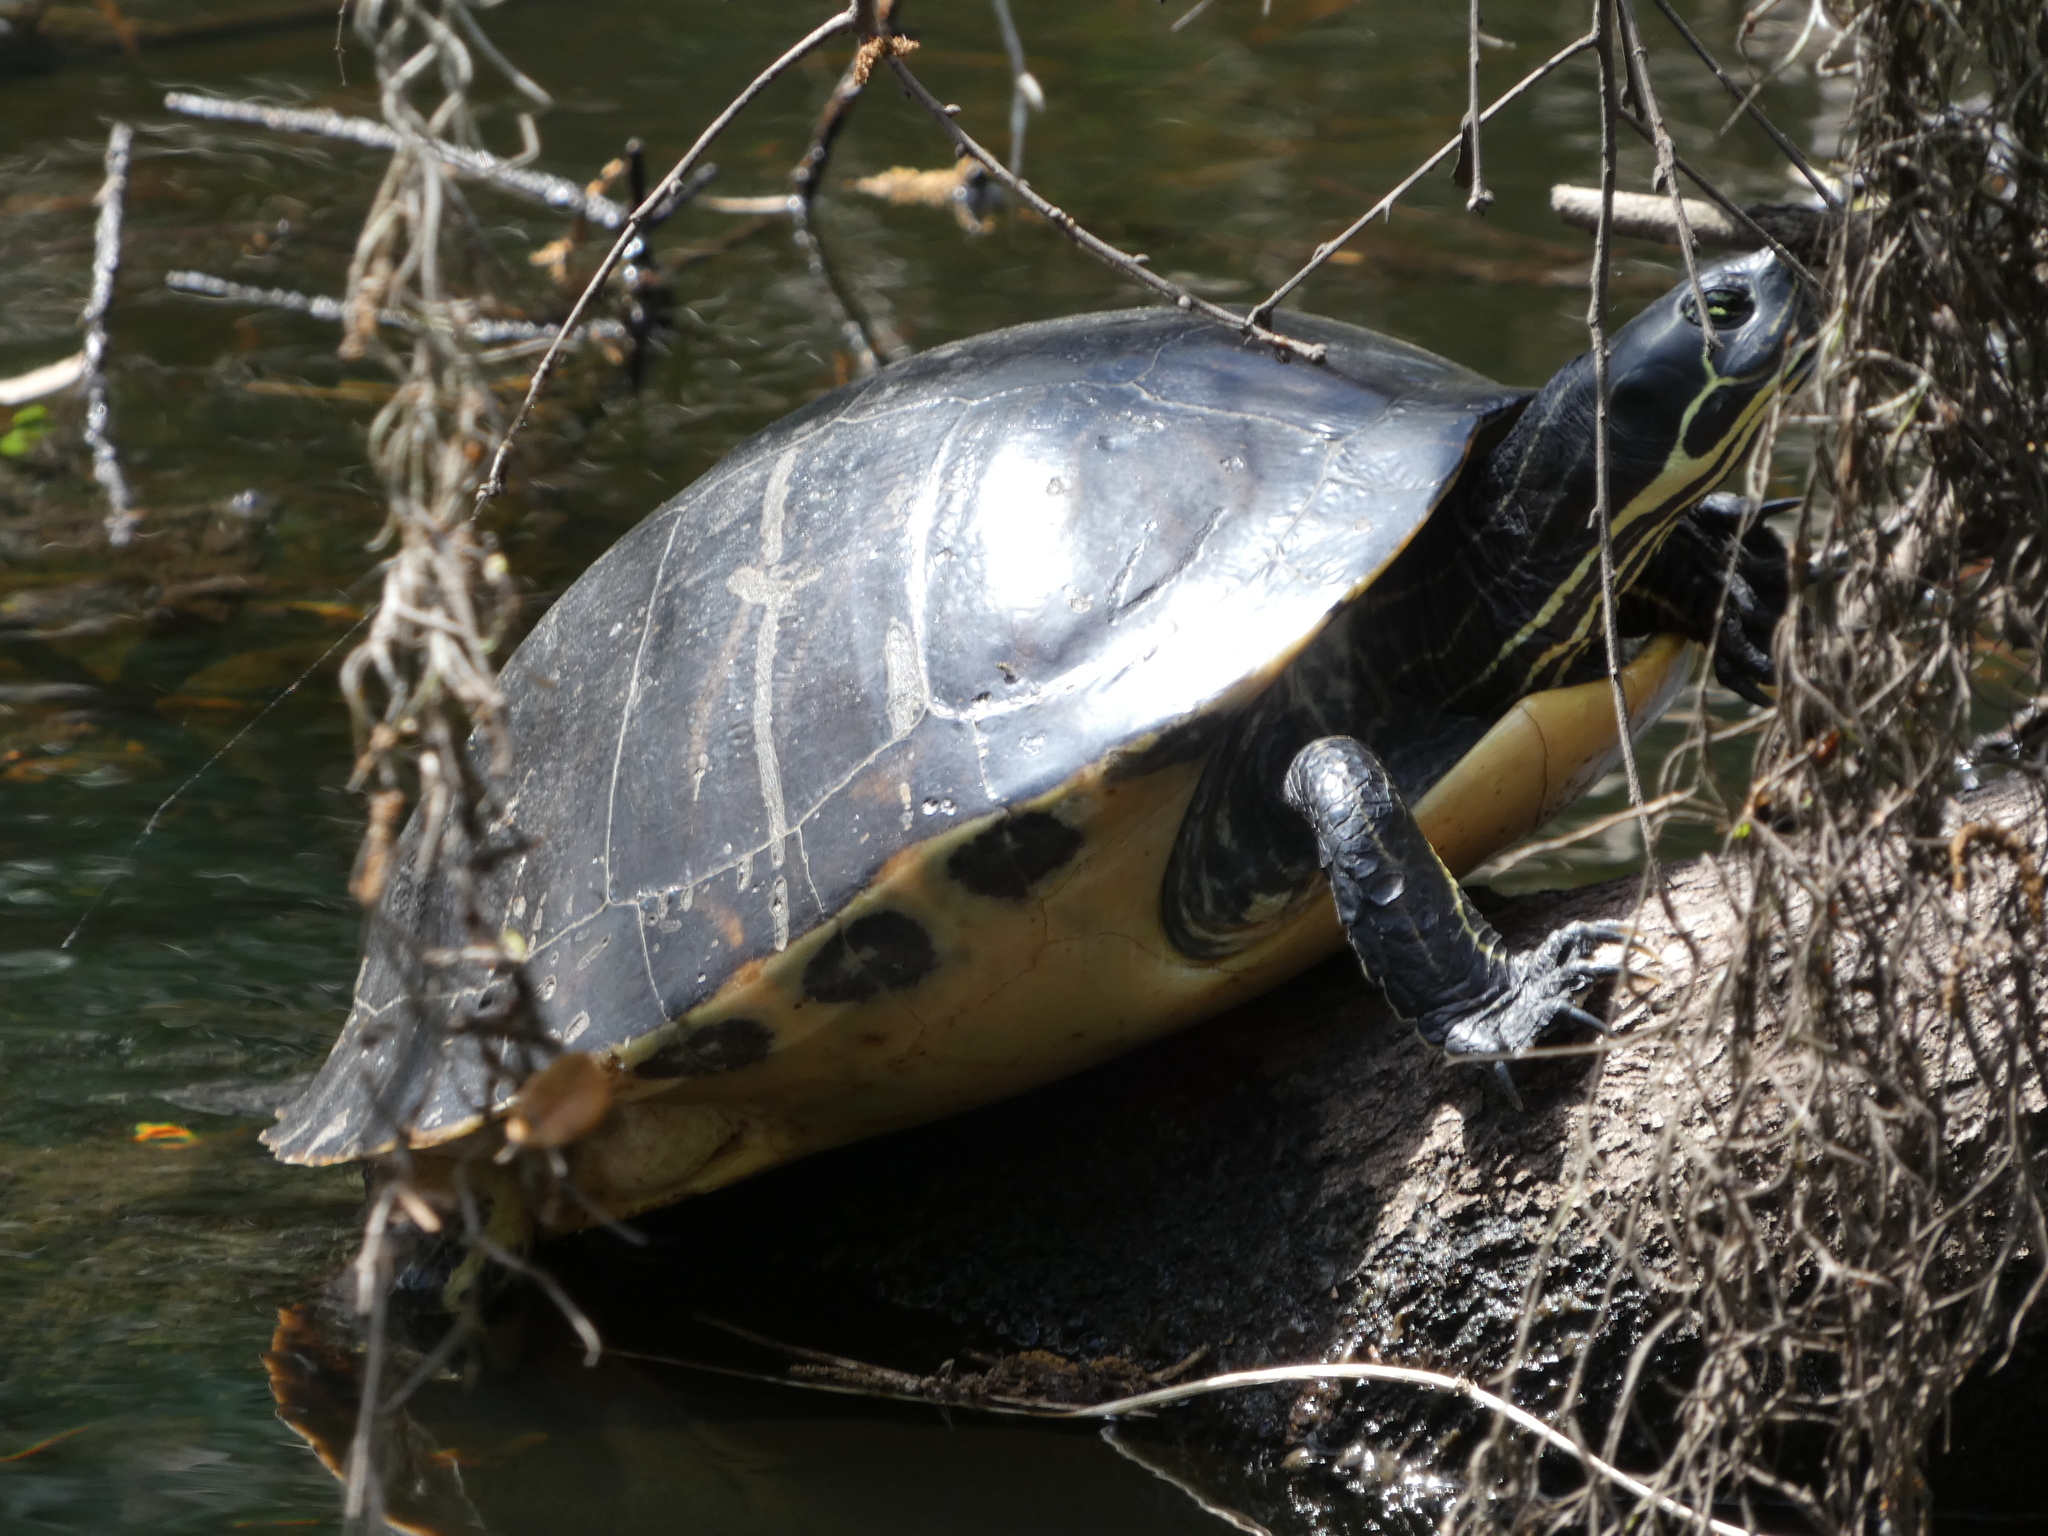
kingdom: Animalia
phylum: Chordata
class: Testudines
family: Emydidae
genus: Pseudemys
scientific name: Pseudemys peninsularis
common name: Peninsula cooter
